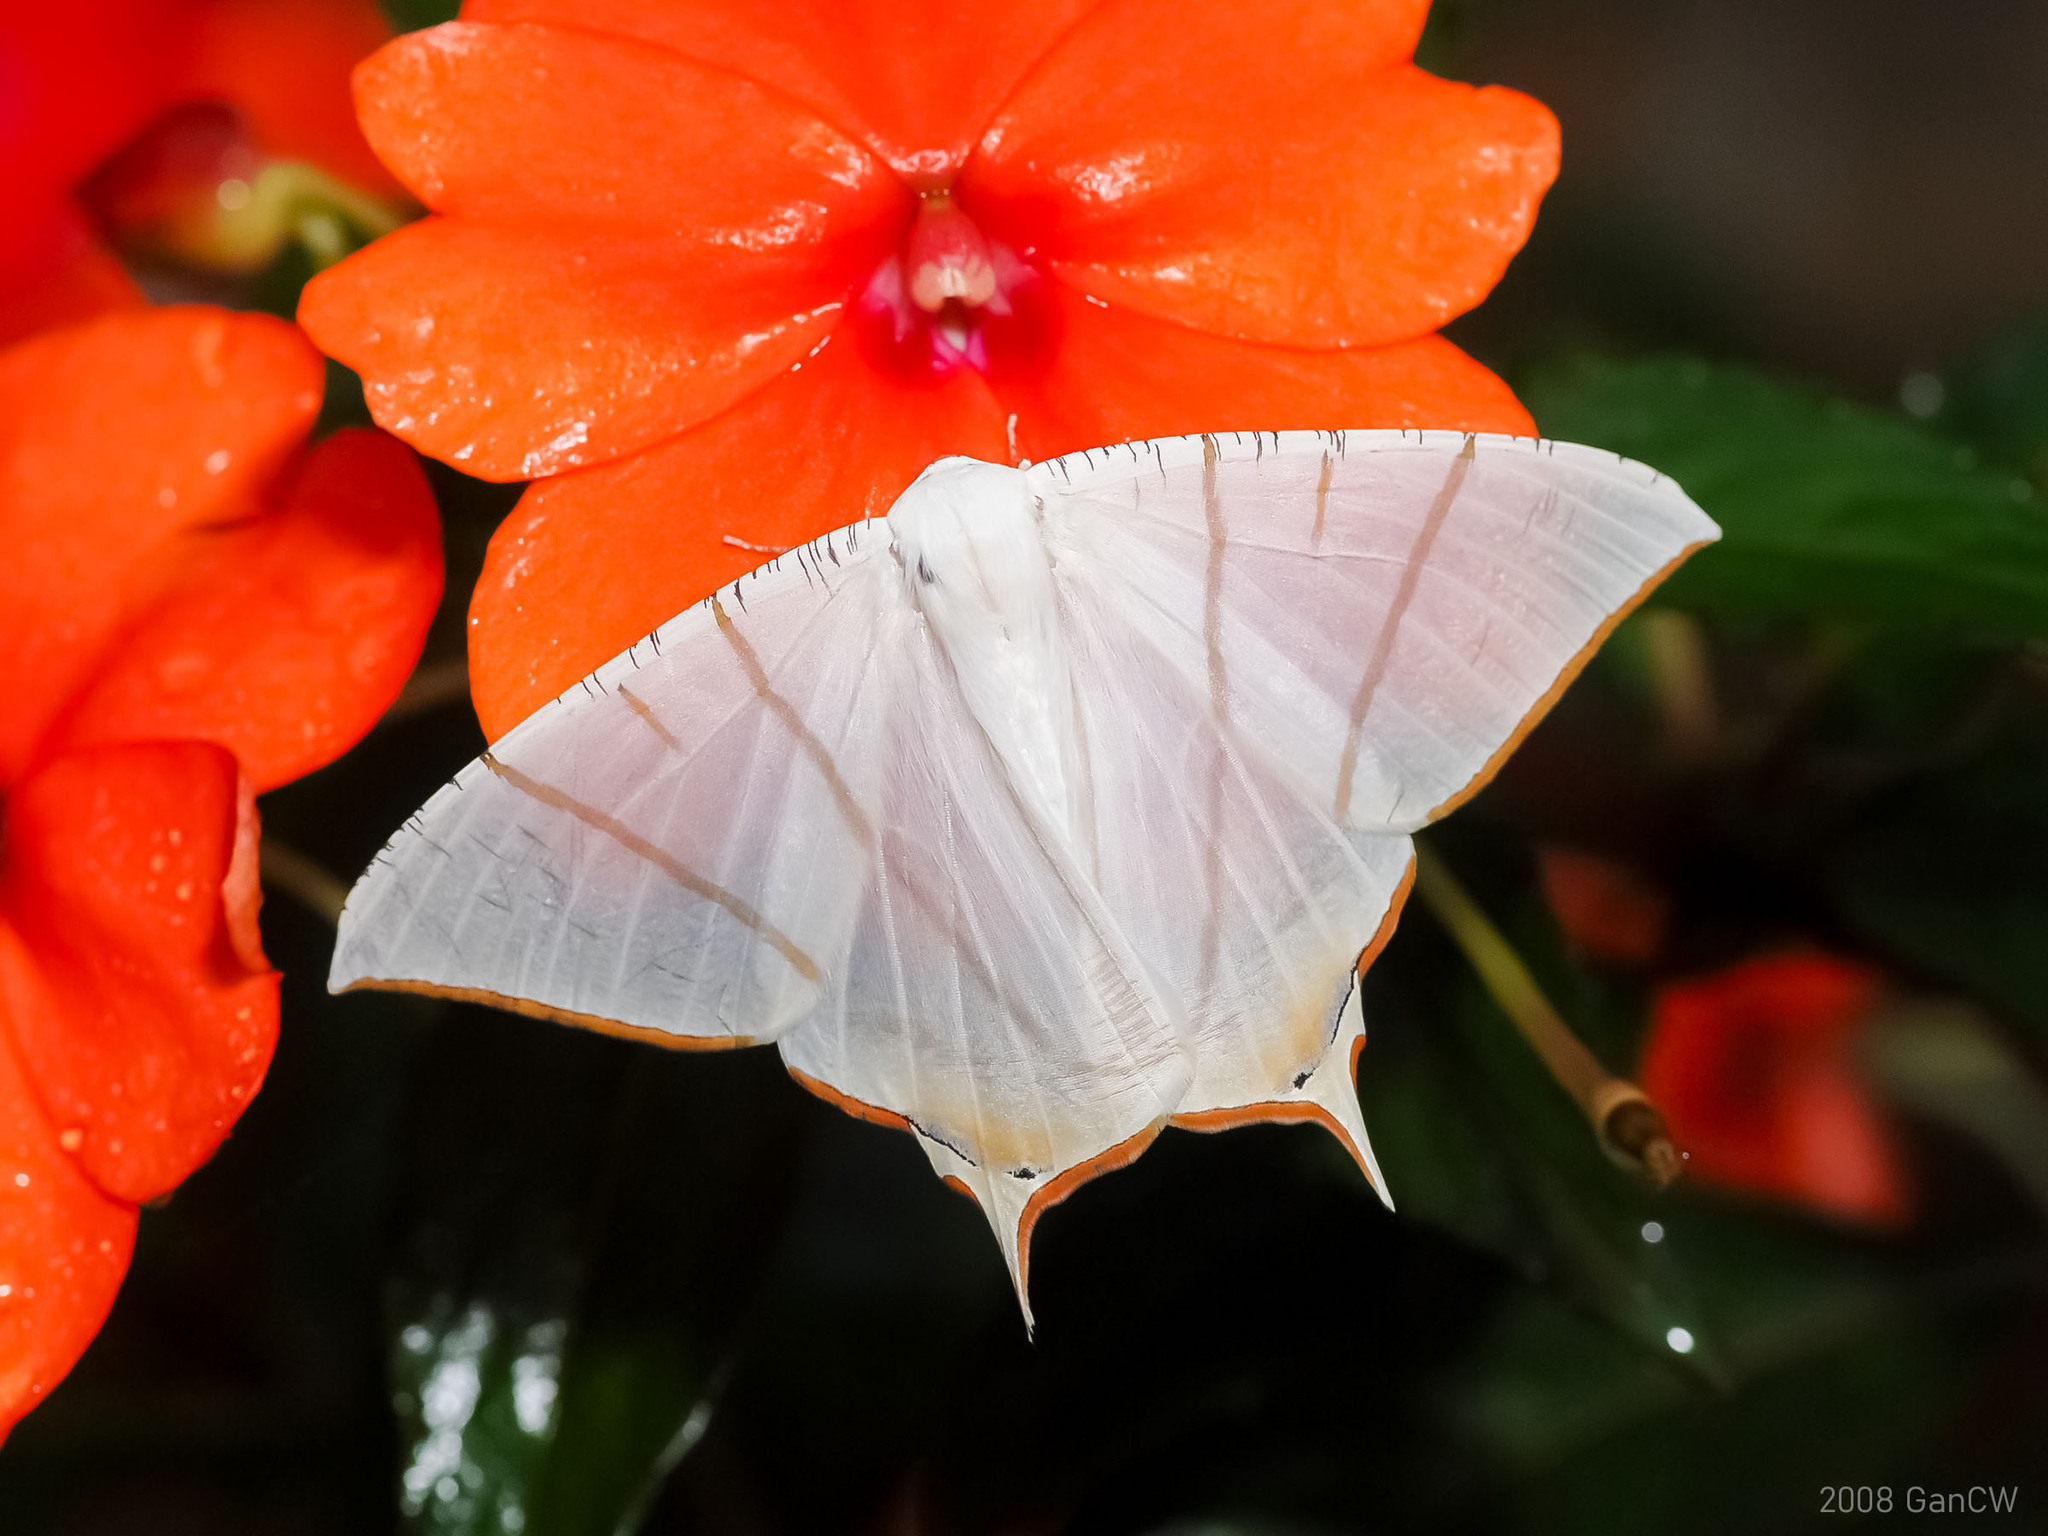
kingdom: Animalia
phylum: Arthropoda
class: Insecta
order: Lepidoptera
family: Geometridae
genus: Ourapteryx
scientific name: Ourapteryx claretta
